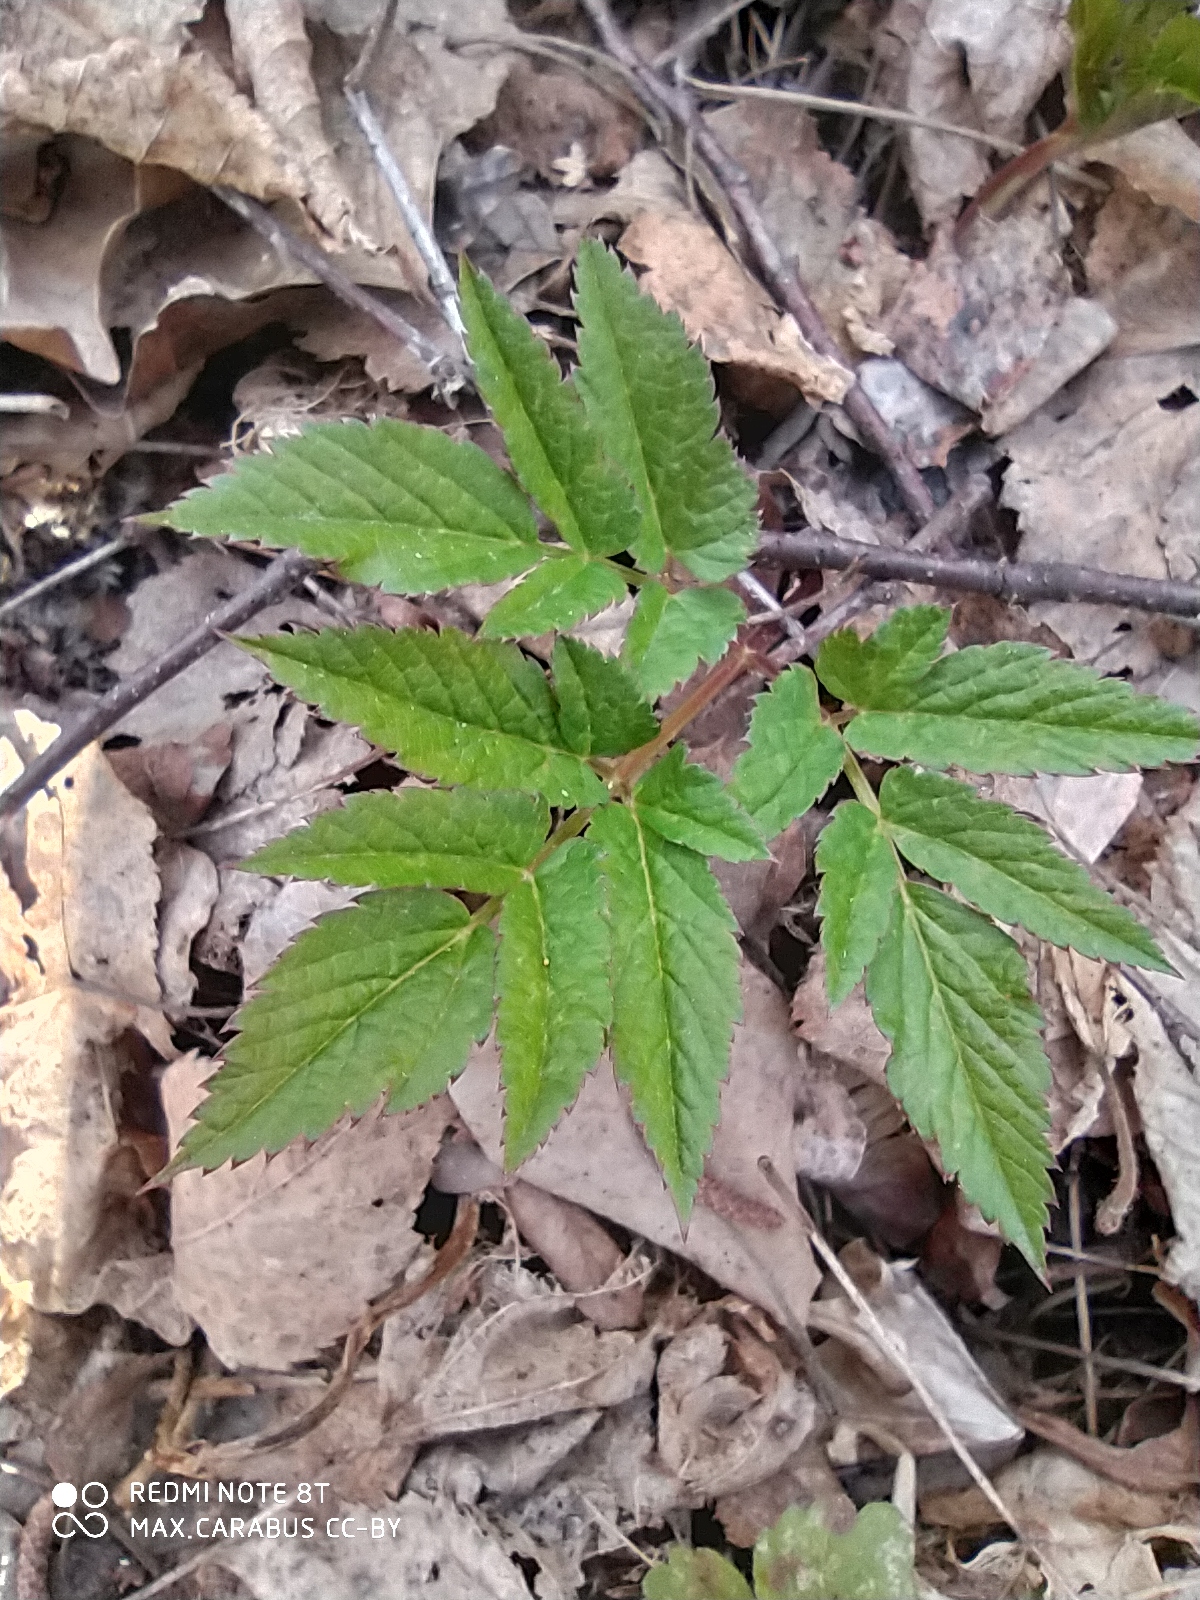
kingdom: Plantae
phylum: Tracheophyta
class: Magnoliopsida
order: Apiales
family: Apiaceae
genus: Aegopodium
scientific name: Aegopodium podagraria
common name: Ground-elder
